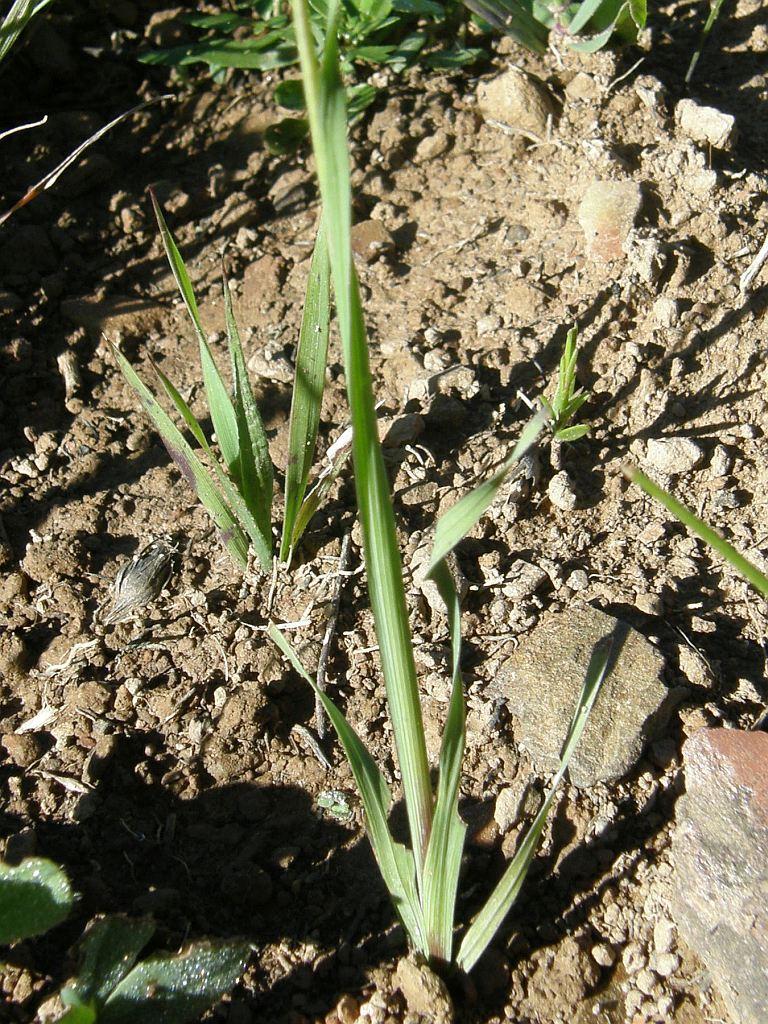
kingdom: Plantae
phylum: Tracheophyta
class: Liliopsida
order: Asparagales
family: Iridaceae
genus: Ixia
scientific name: Ixia flexuosa
